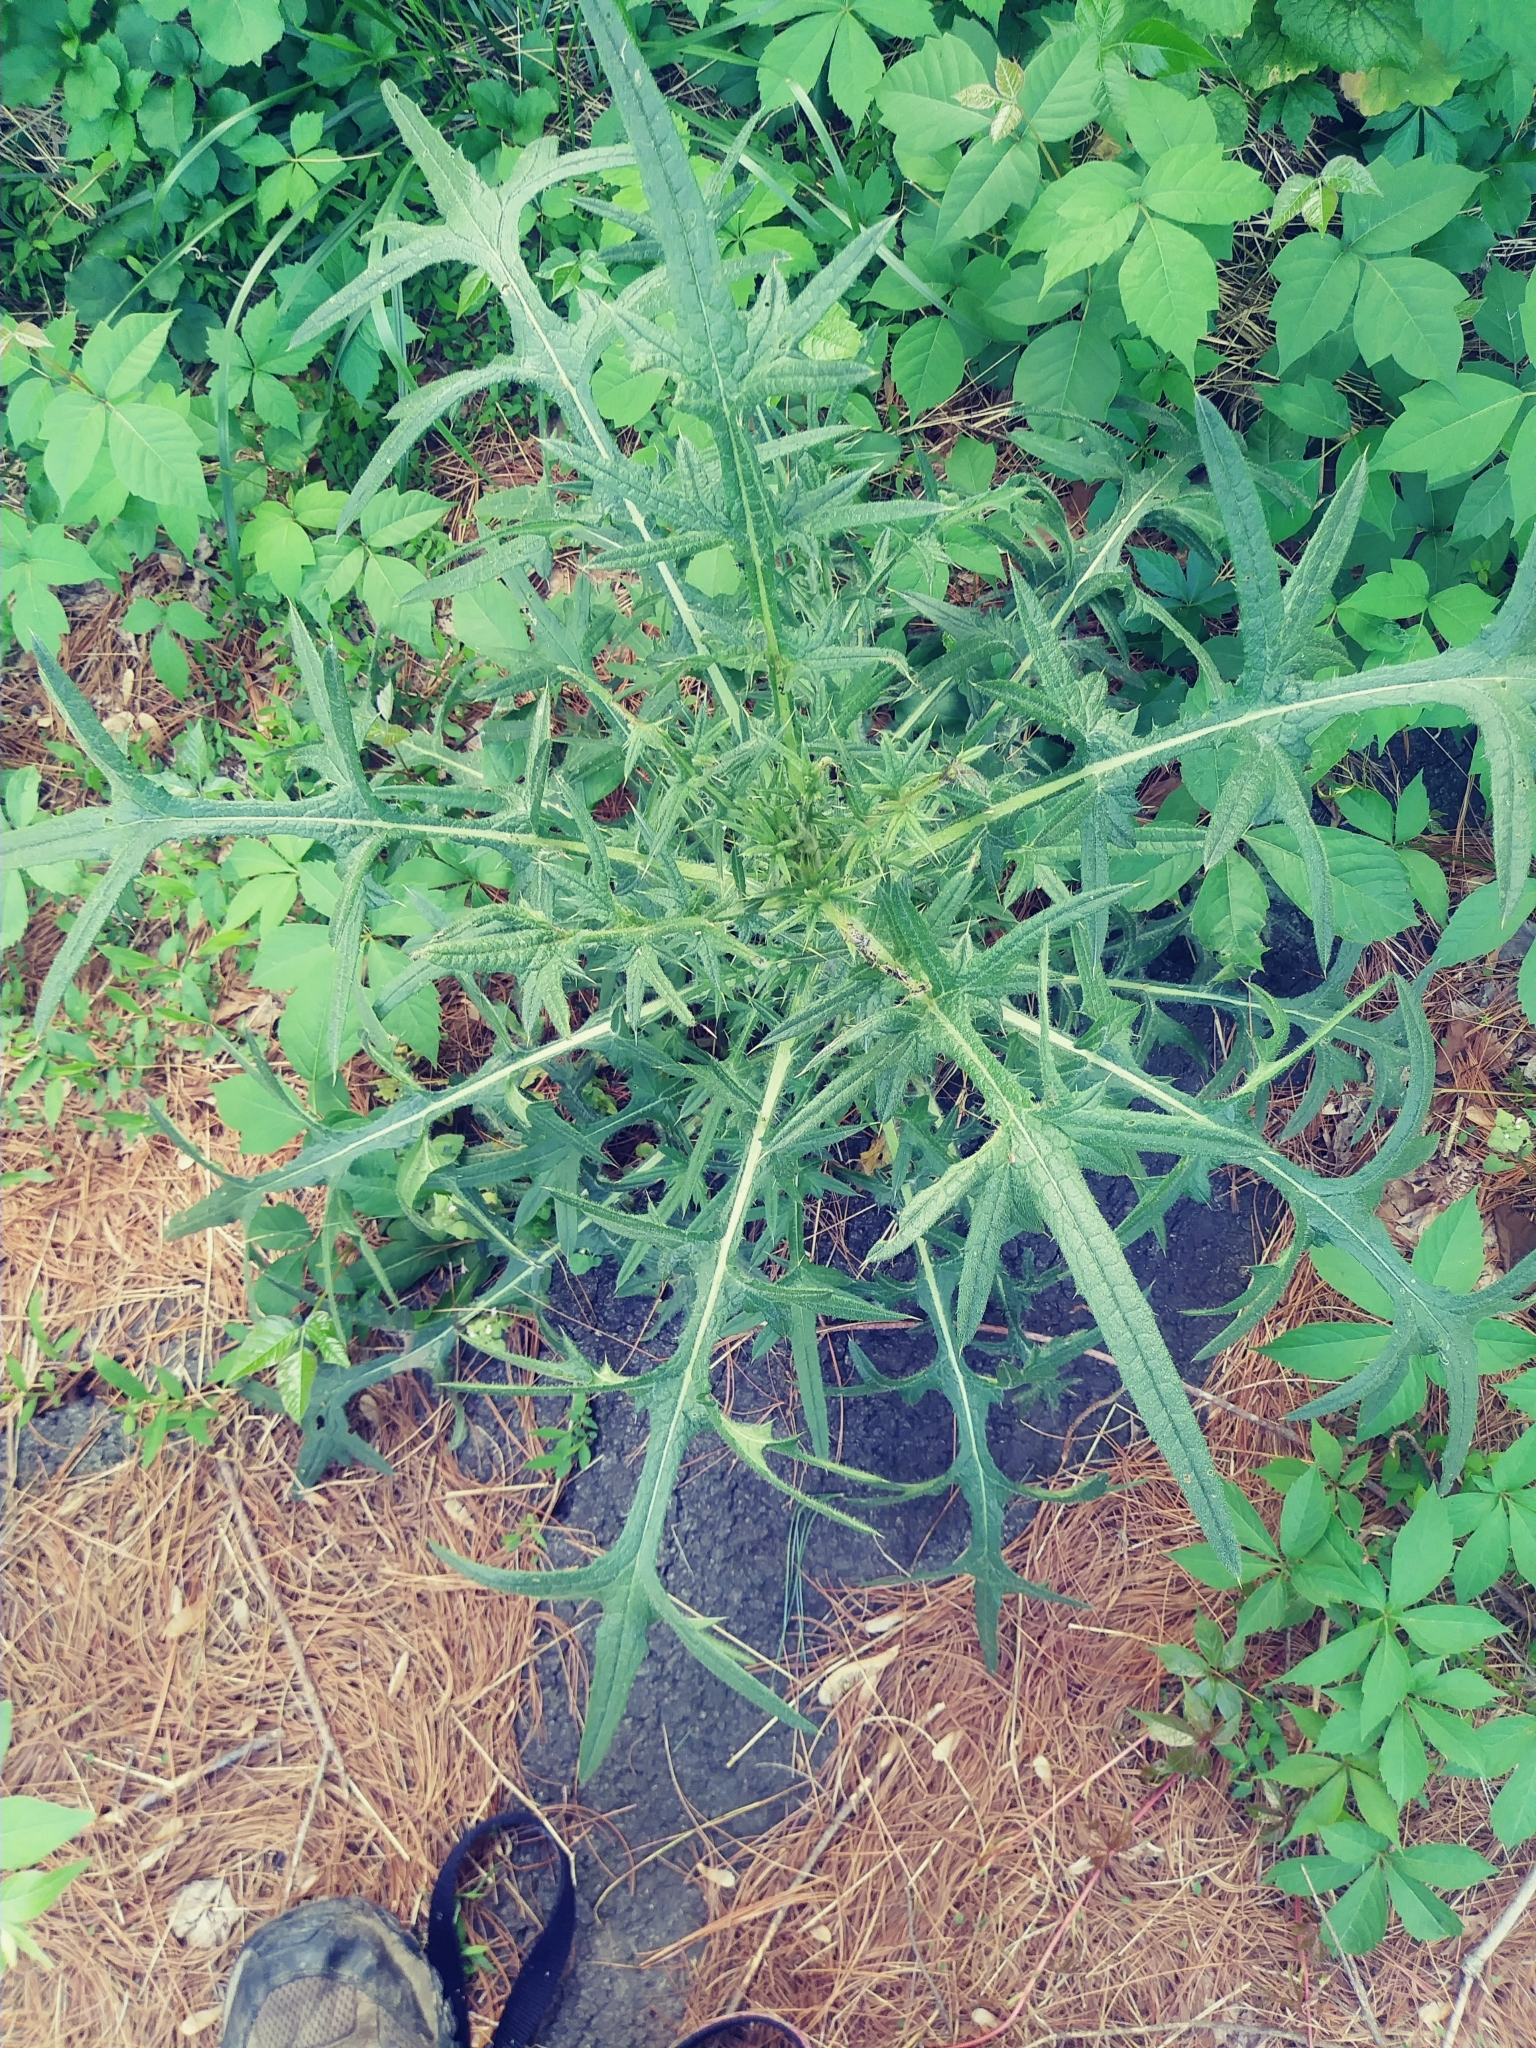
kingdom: Plantae
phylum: Tracheophyta
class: Magnoliopsida
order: Asterales
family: Asteraceae
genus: Cirsium
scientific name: Cirsium vulgare
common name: Bull thistle
